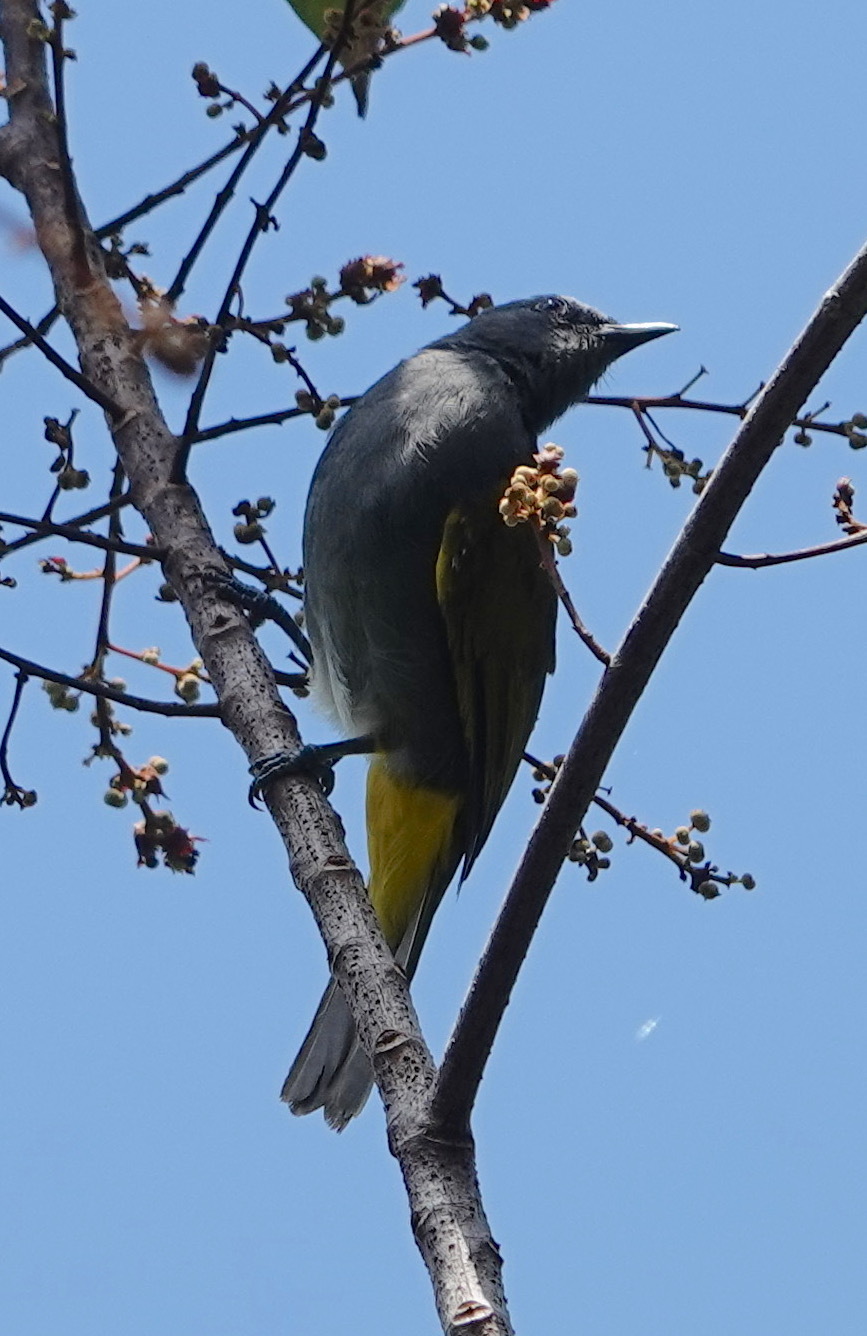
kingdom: Animalia
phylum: Chordata
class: Aves
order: Passeriformes
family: Pycnonotidae
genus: Rubigula
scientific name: Rubigula cyaniventris
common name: Gray-bellied bulbul
